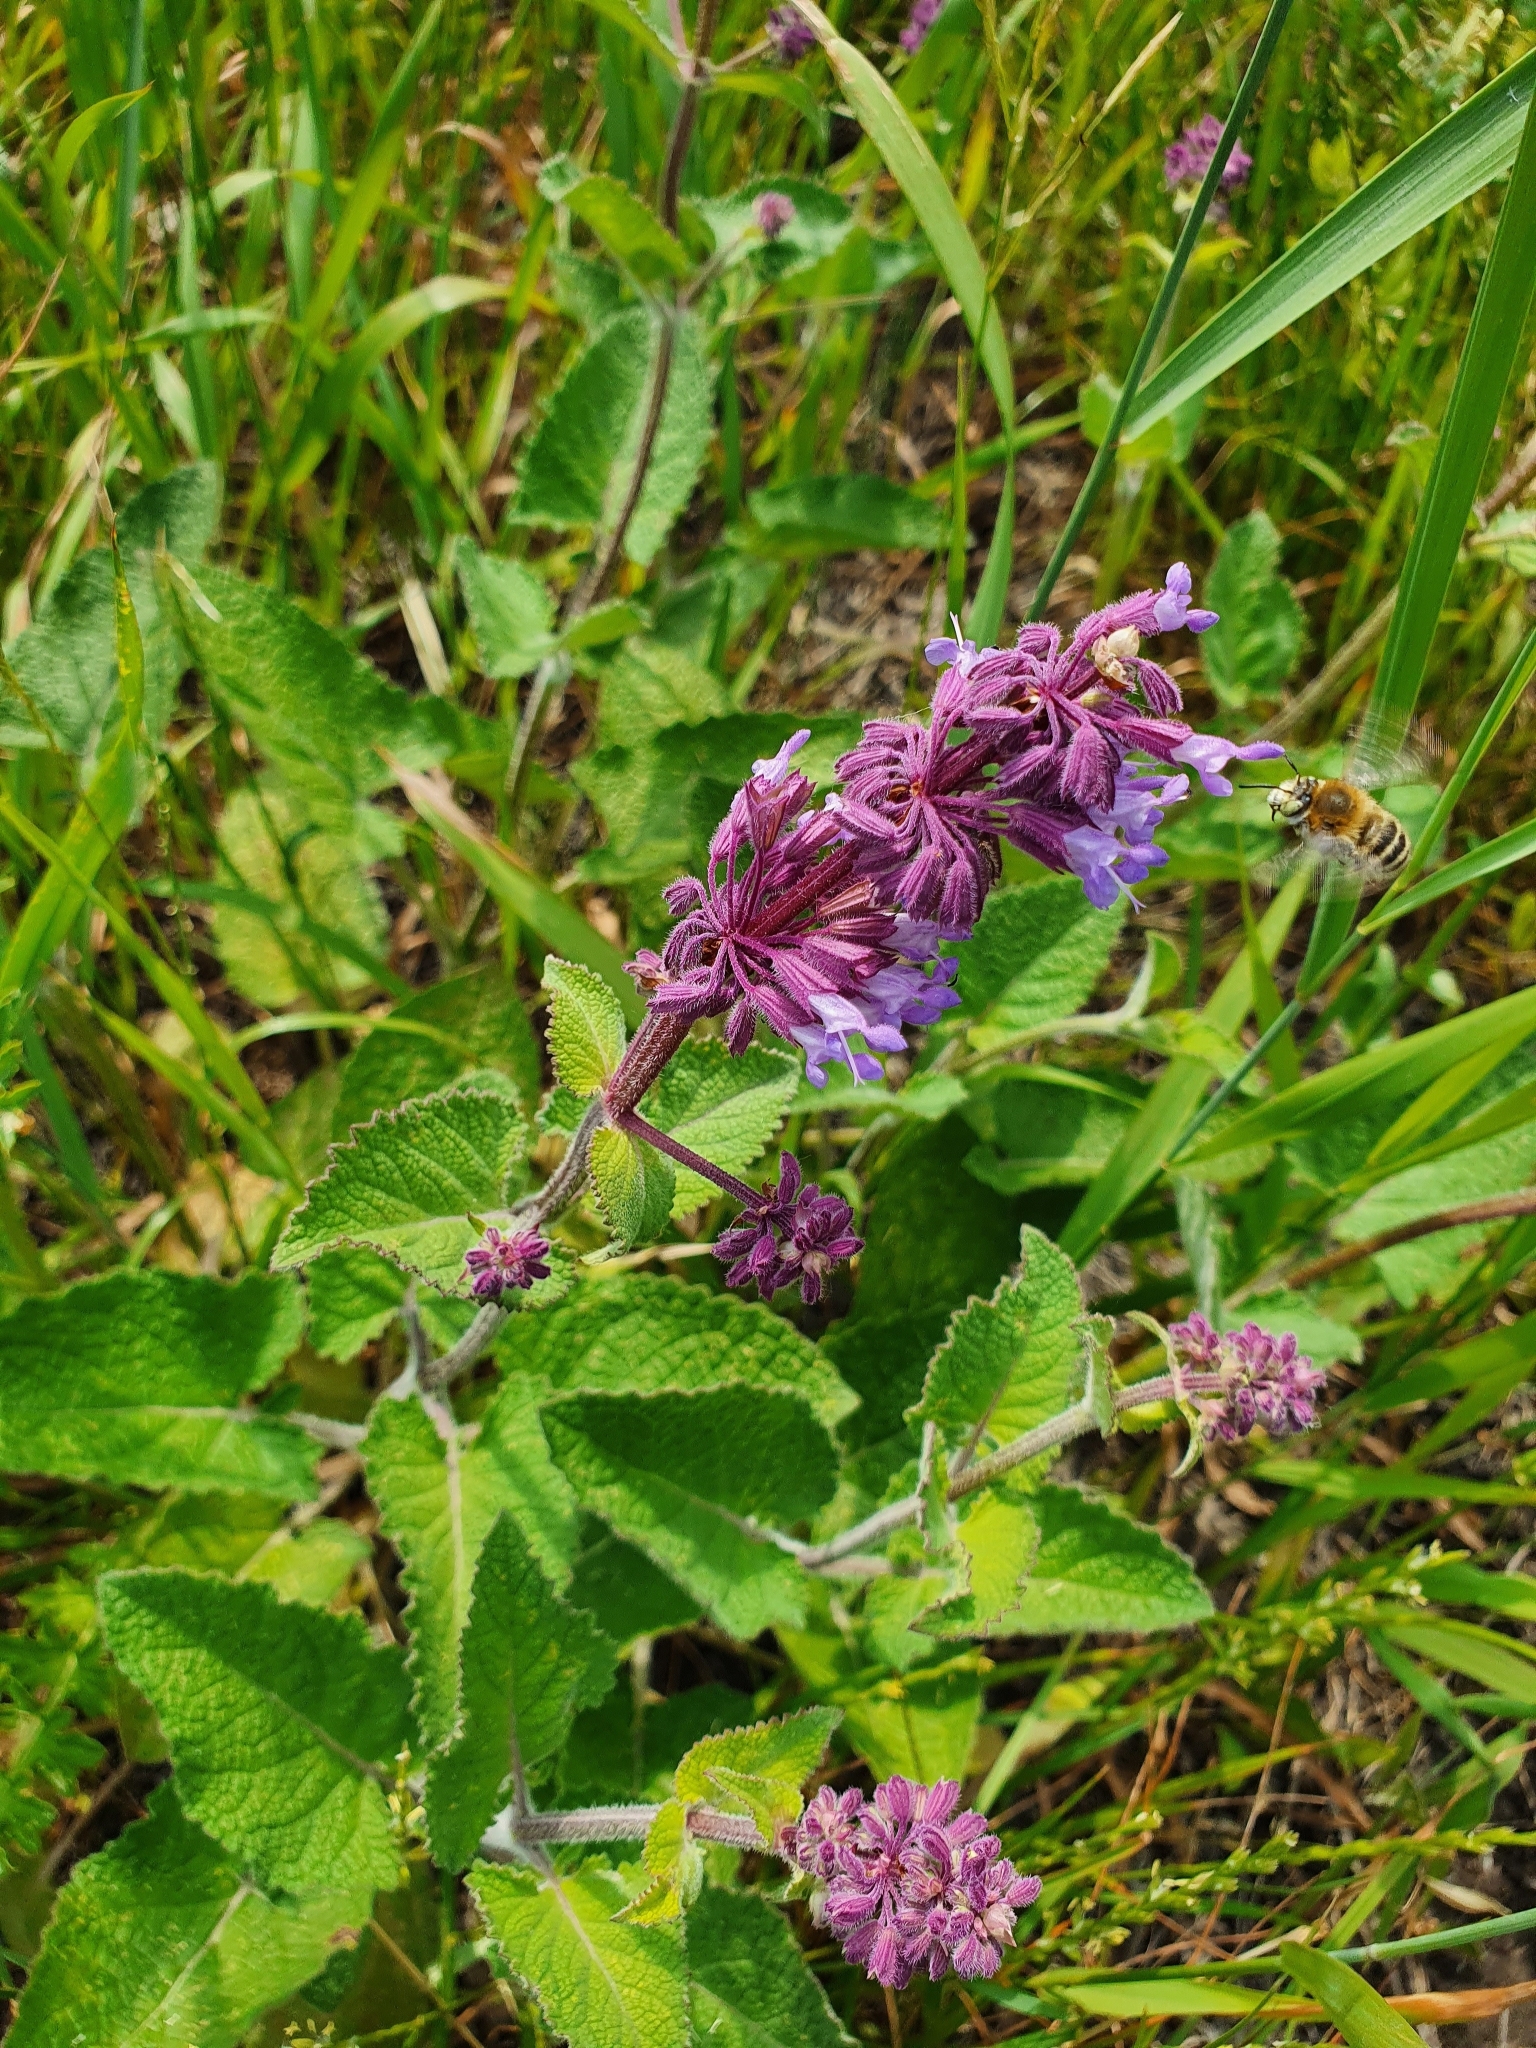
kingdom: Plantae
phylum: Tracheophyta
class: Magnoliopsida
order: Lamiales
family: Lamiaceae
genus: Salvia
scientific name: Salvia verticillata
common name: Whorled clary
